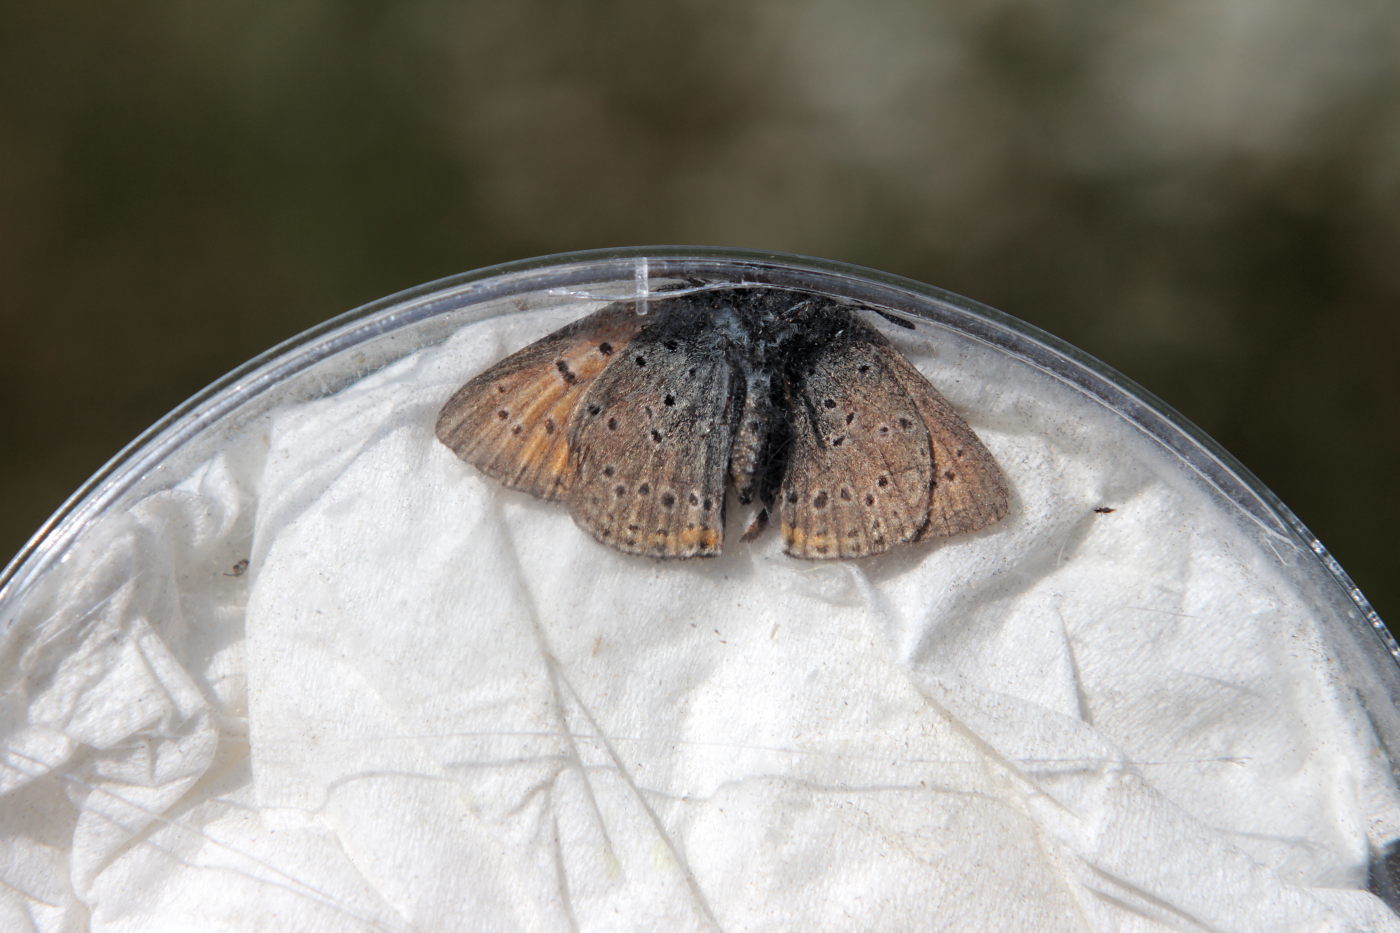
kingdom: Animalia
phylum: Arthropoda
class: Insecta
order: Lepidoptera
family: Lycaenidae
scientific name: Lycaenidae
